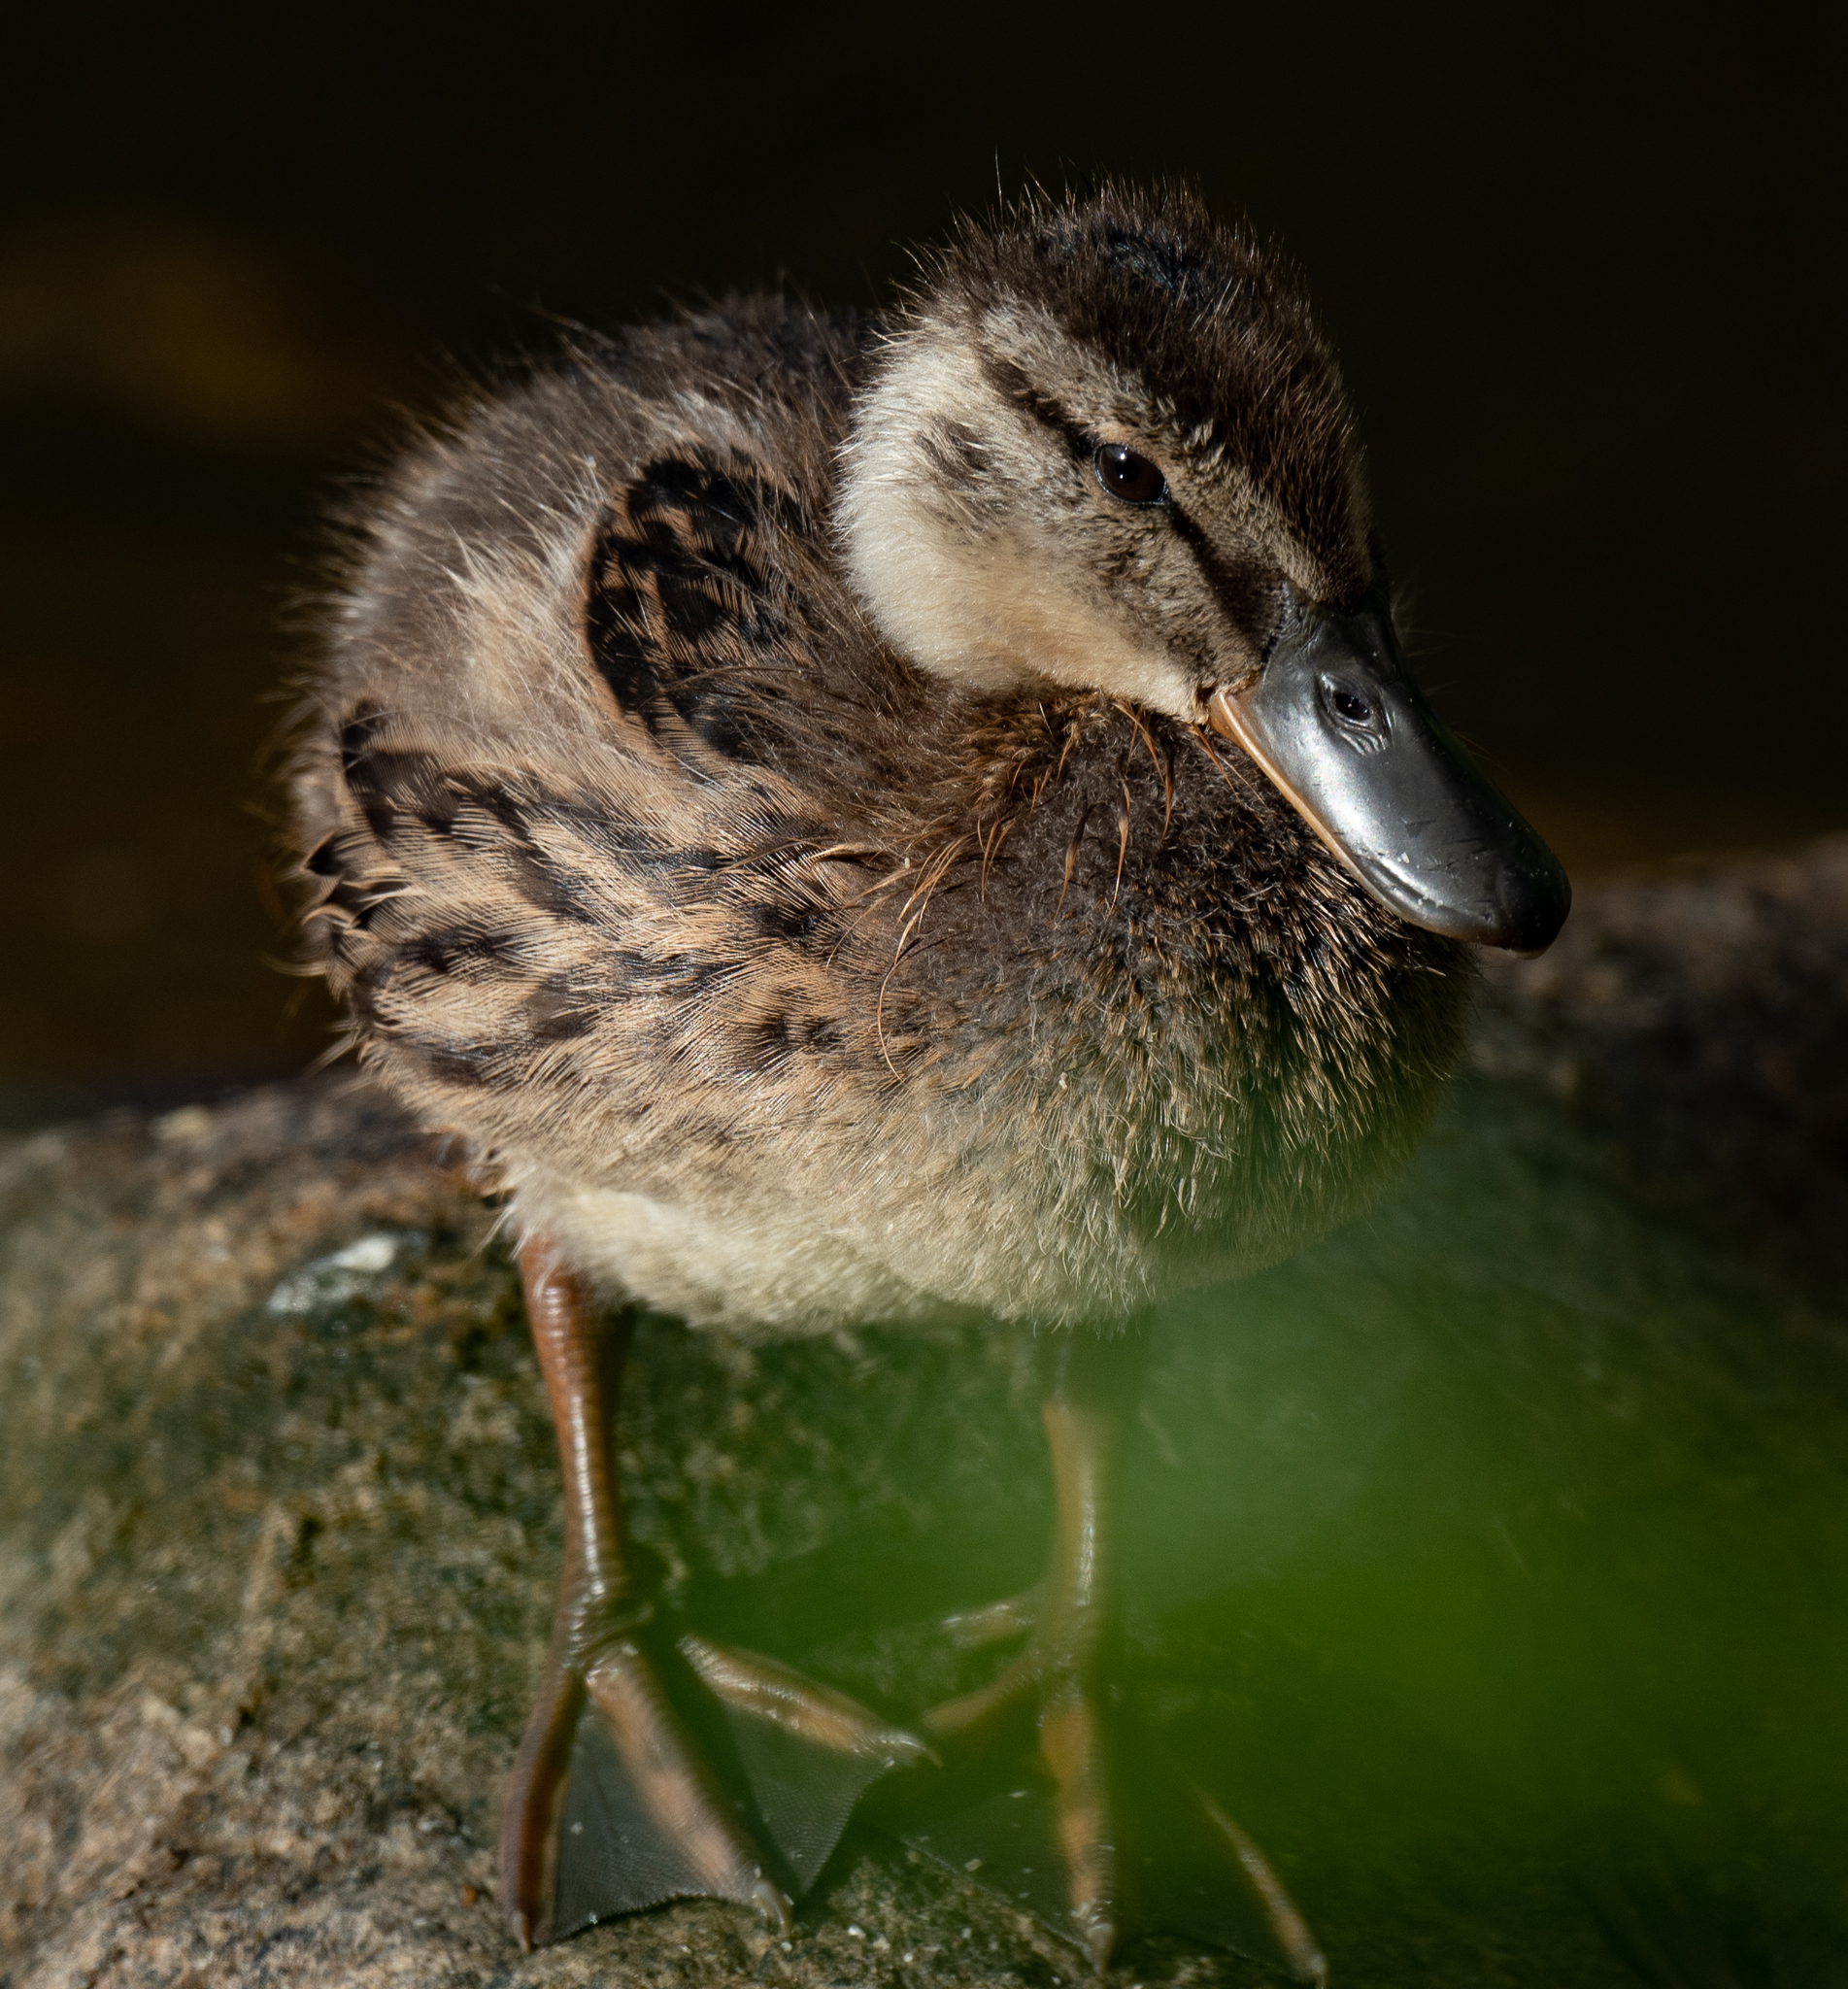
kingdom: Animalia
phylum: Chordata
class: Aves
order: Anseriformes
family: Anatidae
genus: Anas
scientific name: Anas platyrhynchos
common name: Mallard
